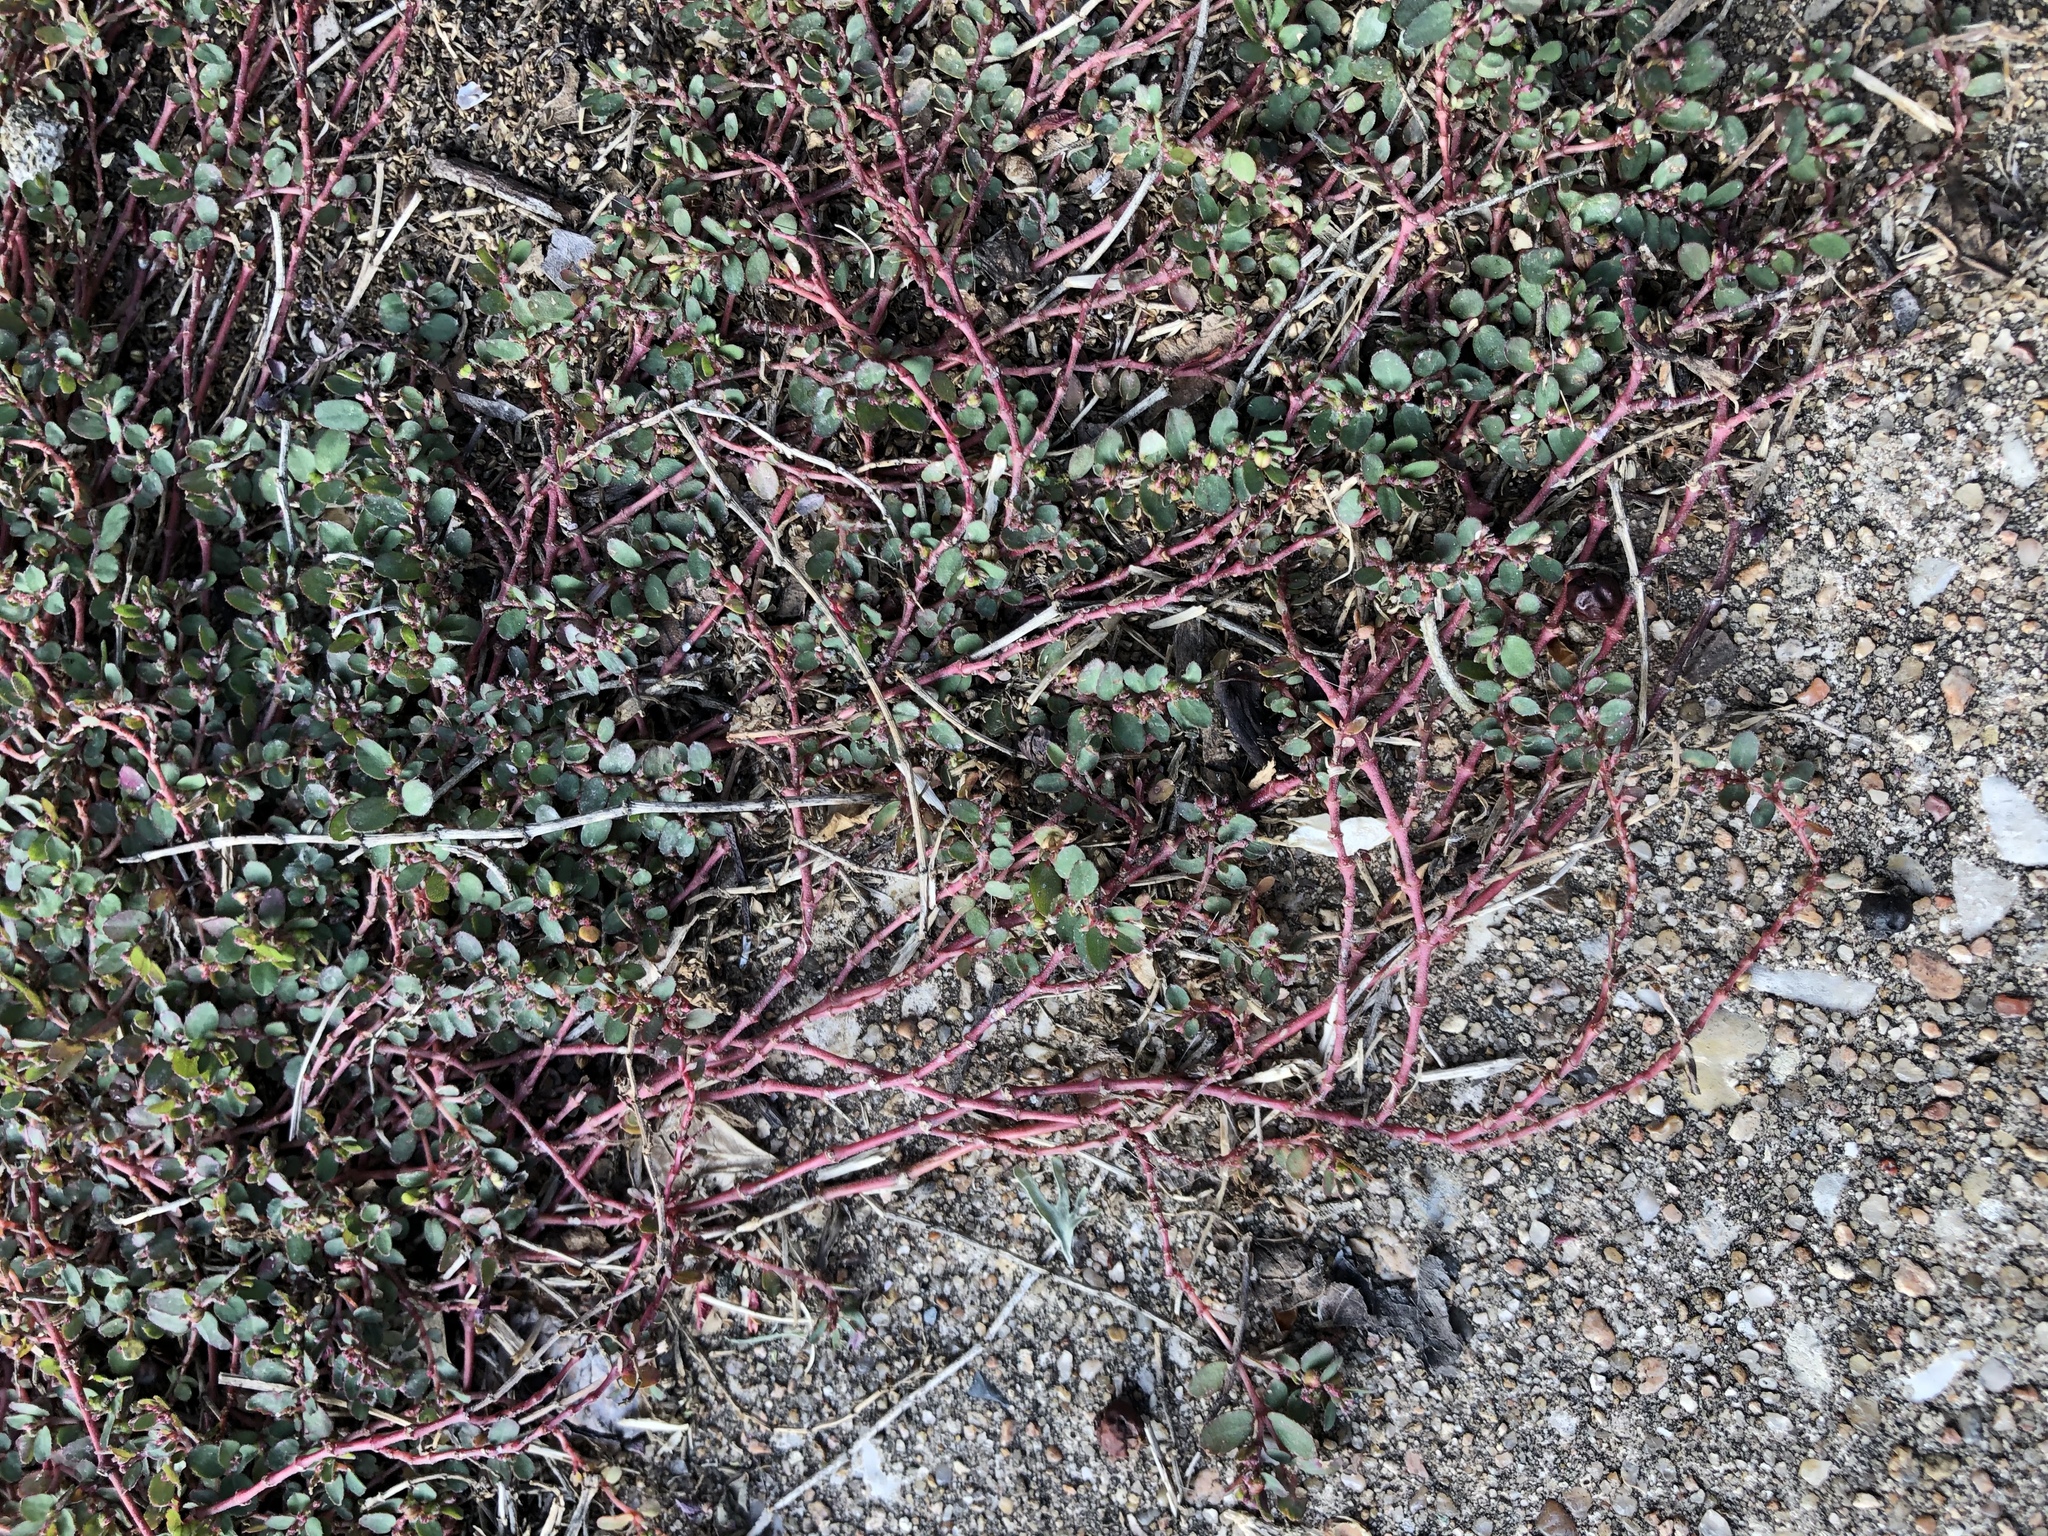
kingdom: Plantae
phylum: Tracheophyta
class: Magnoliopsida
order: Malpighiales
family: Euphorbiaceae
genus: Euphorbia
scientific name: Euphorbia prostrata
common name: Prostrate sandmat
